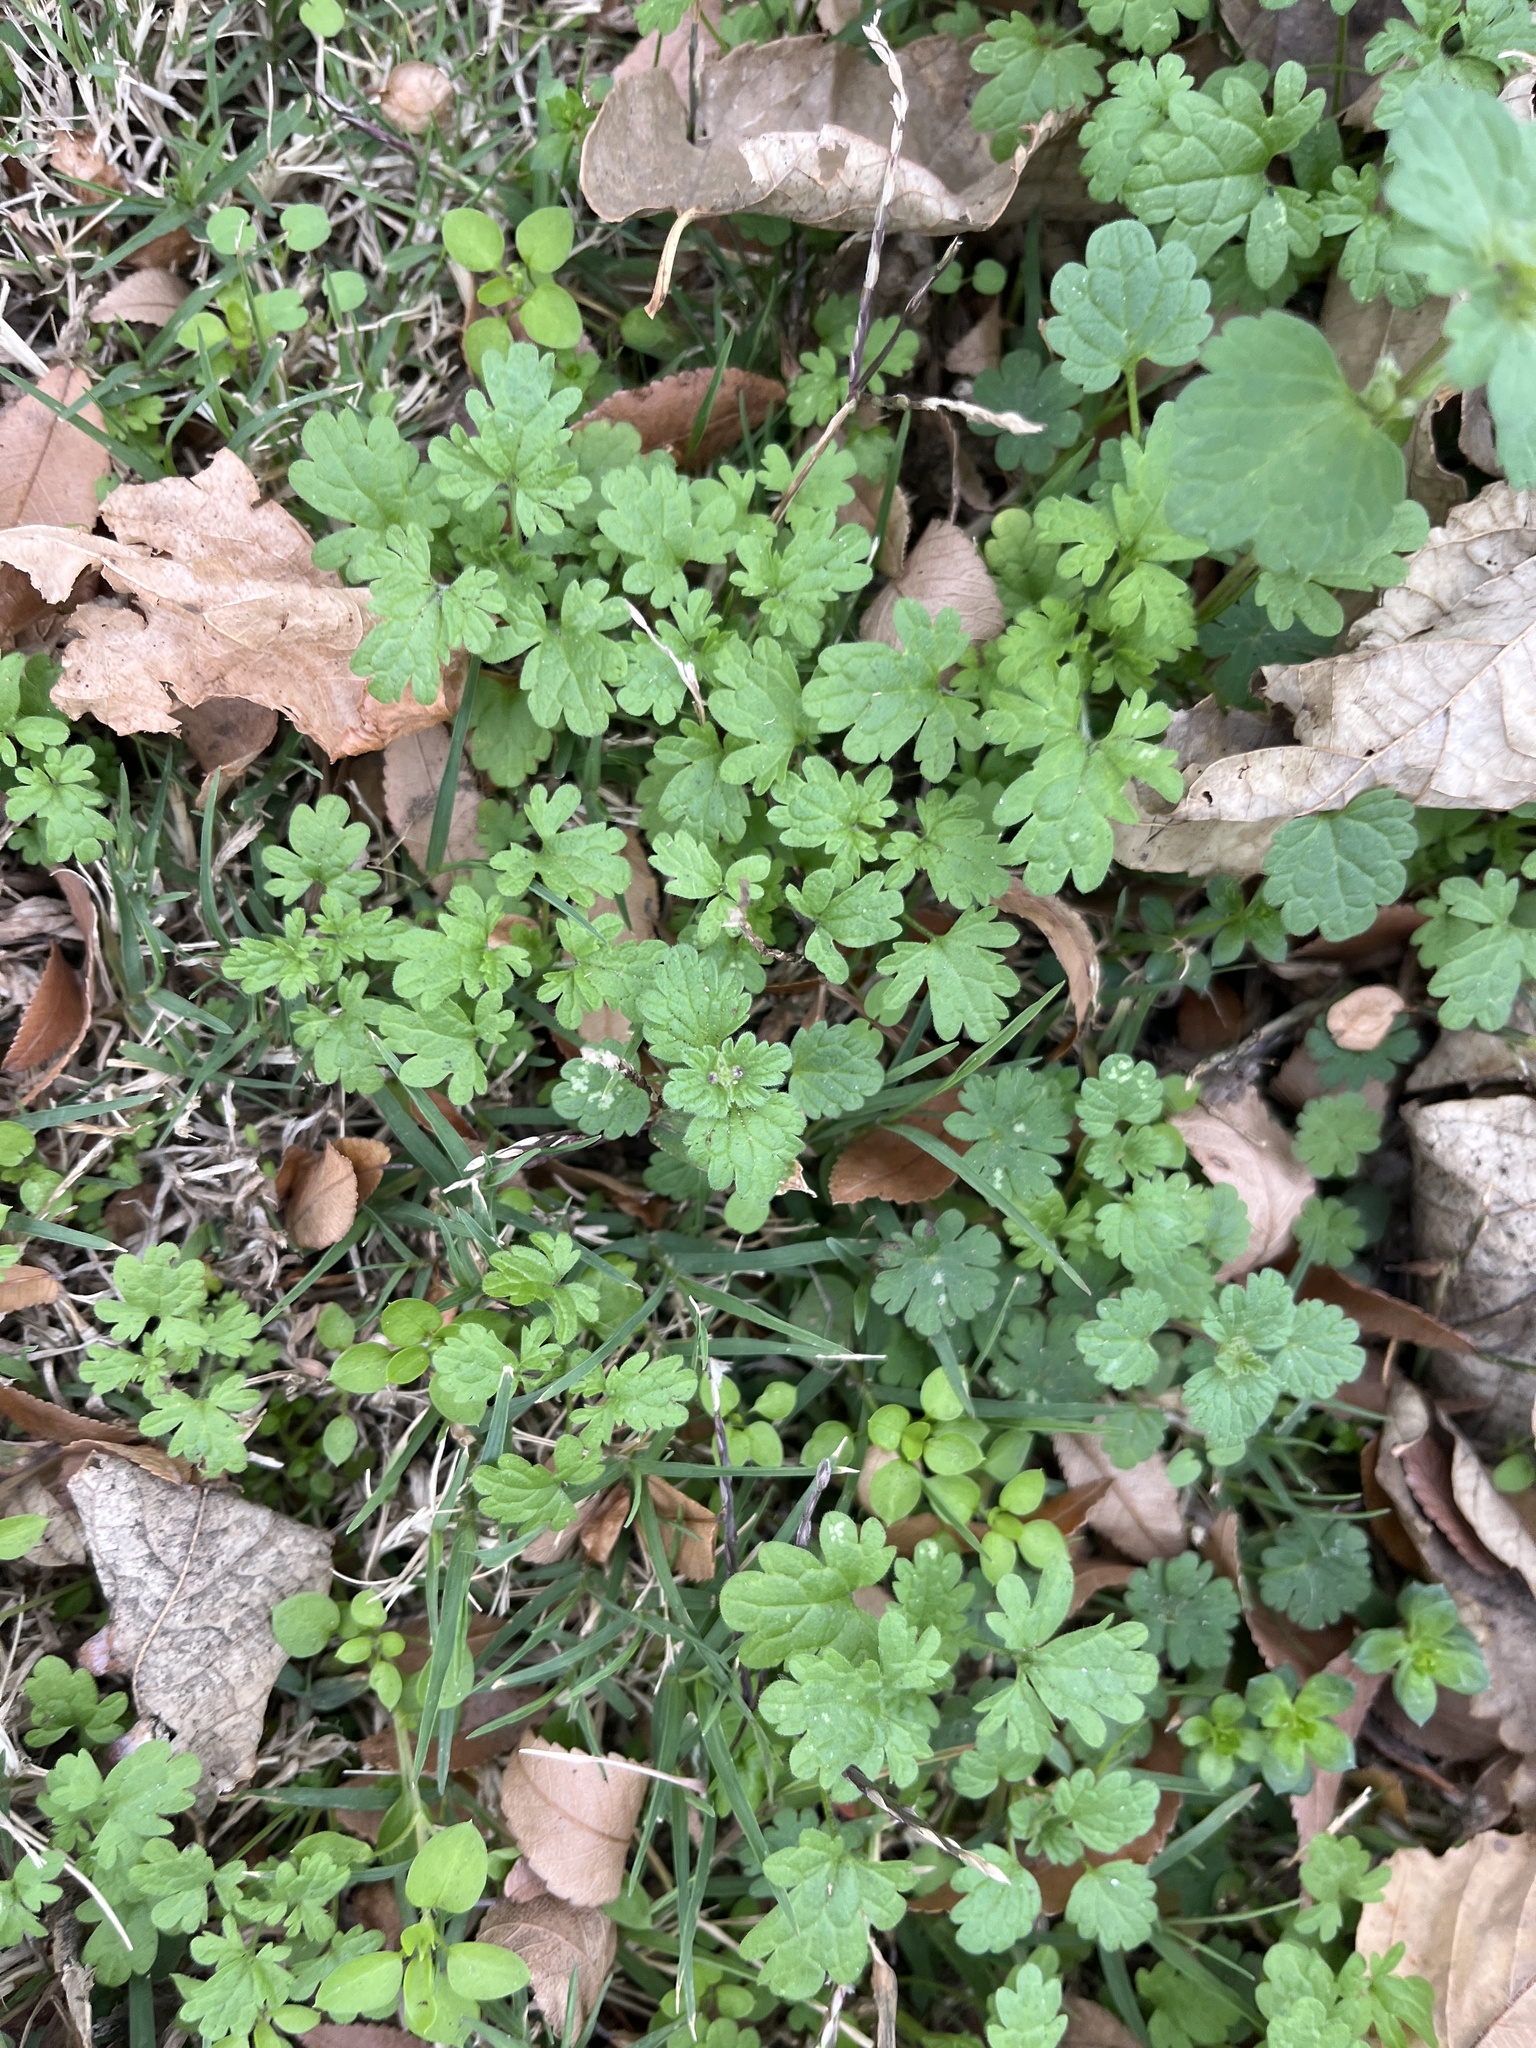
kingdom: Plantae
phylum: Tracheophyta
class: Magnoliopsida
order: Lamiales
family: Lamiaceae
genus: Lamium
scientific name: Lamium amplexicaule
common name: Henbit dead-nettle
